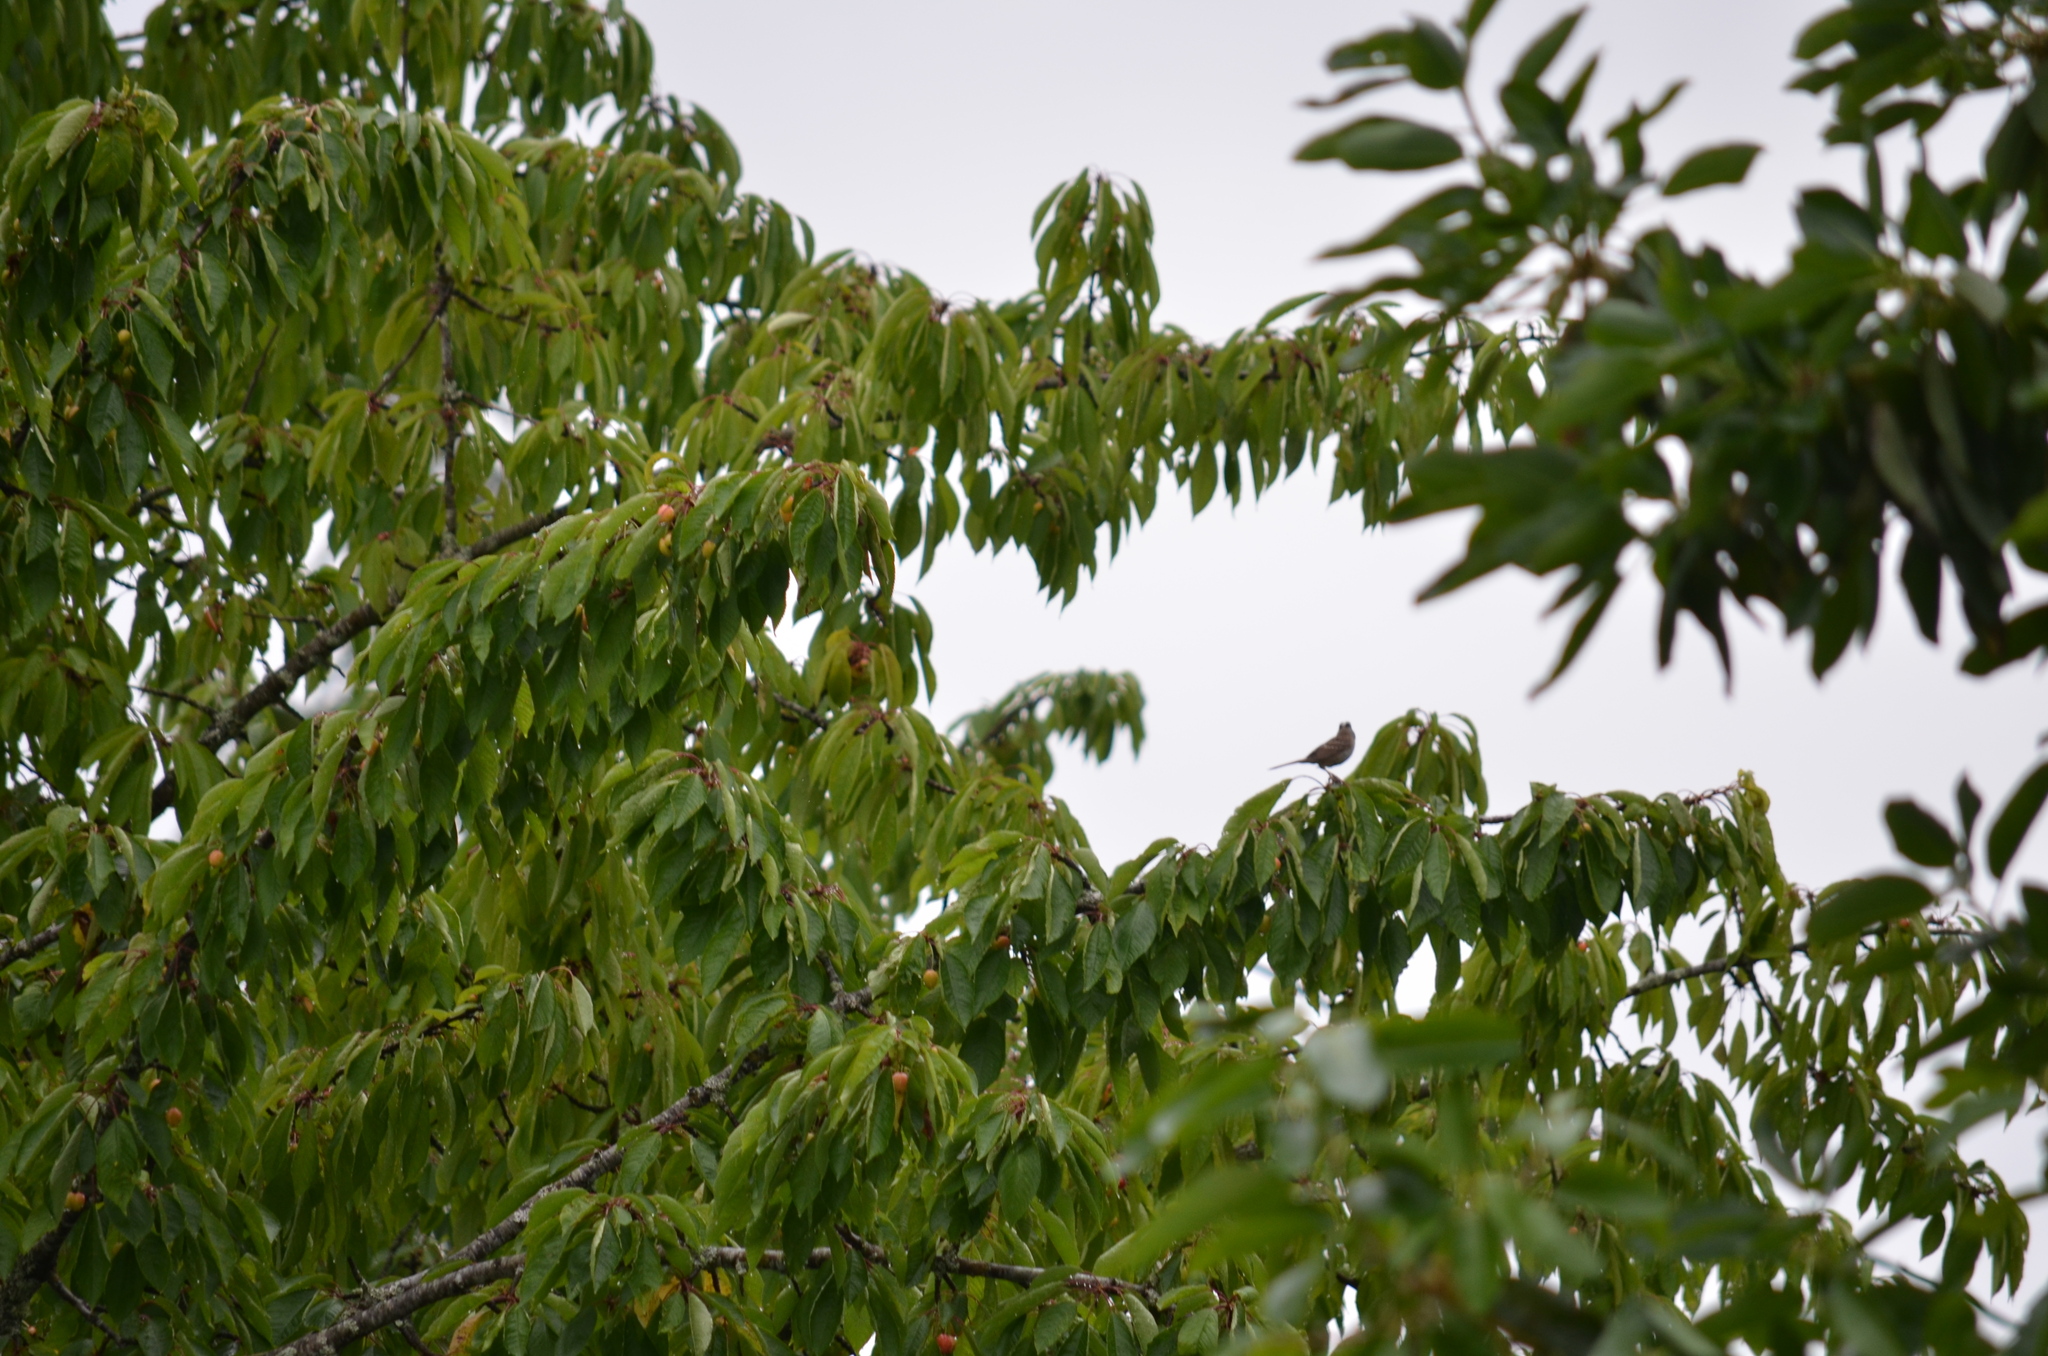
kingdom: Animalia
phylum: Chordata
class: Aves
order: Passeriformes
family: Passerellidae
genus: Zonotrichia
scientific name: Zonotrichia leucophrys
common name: White-crowned sparrow
